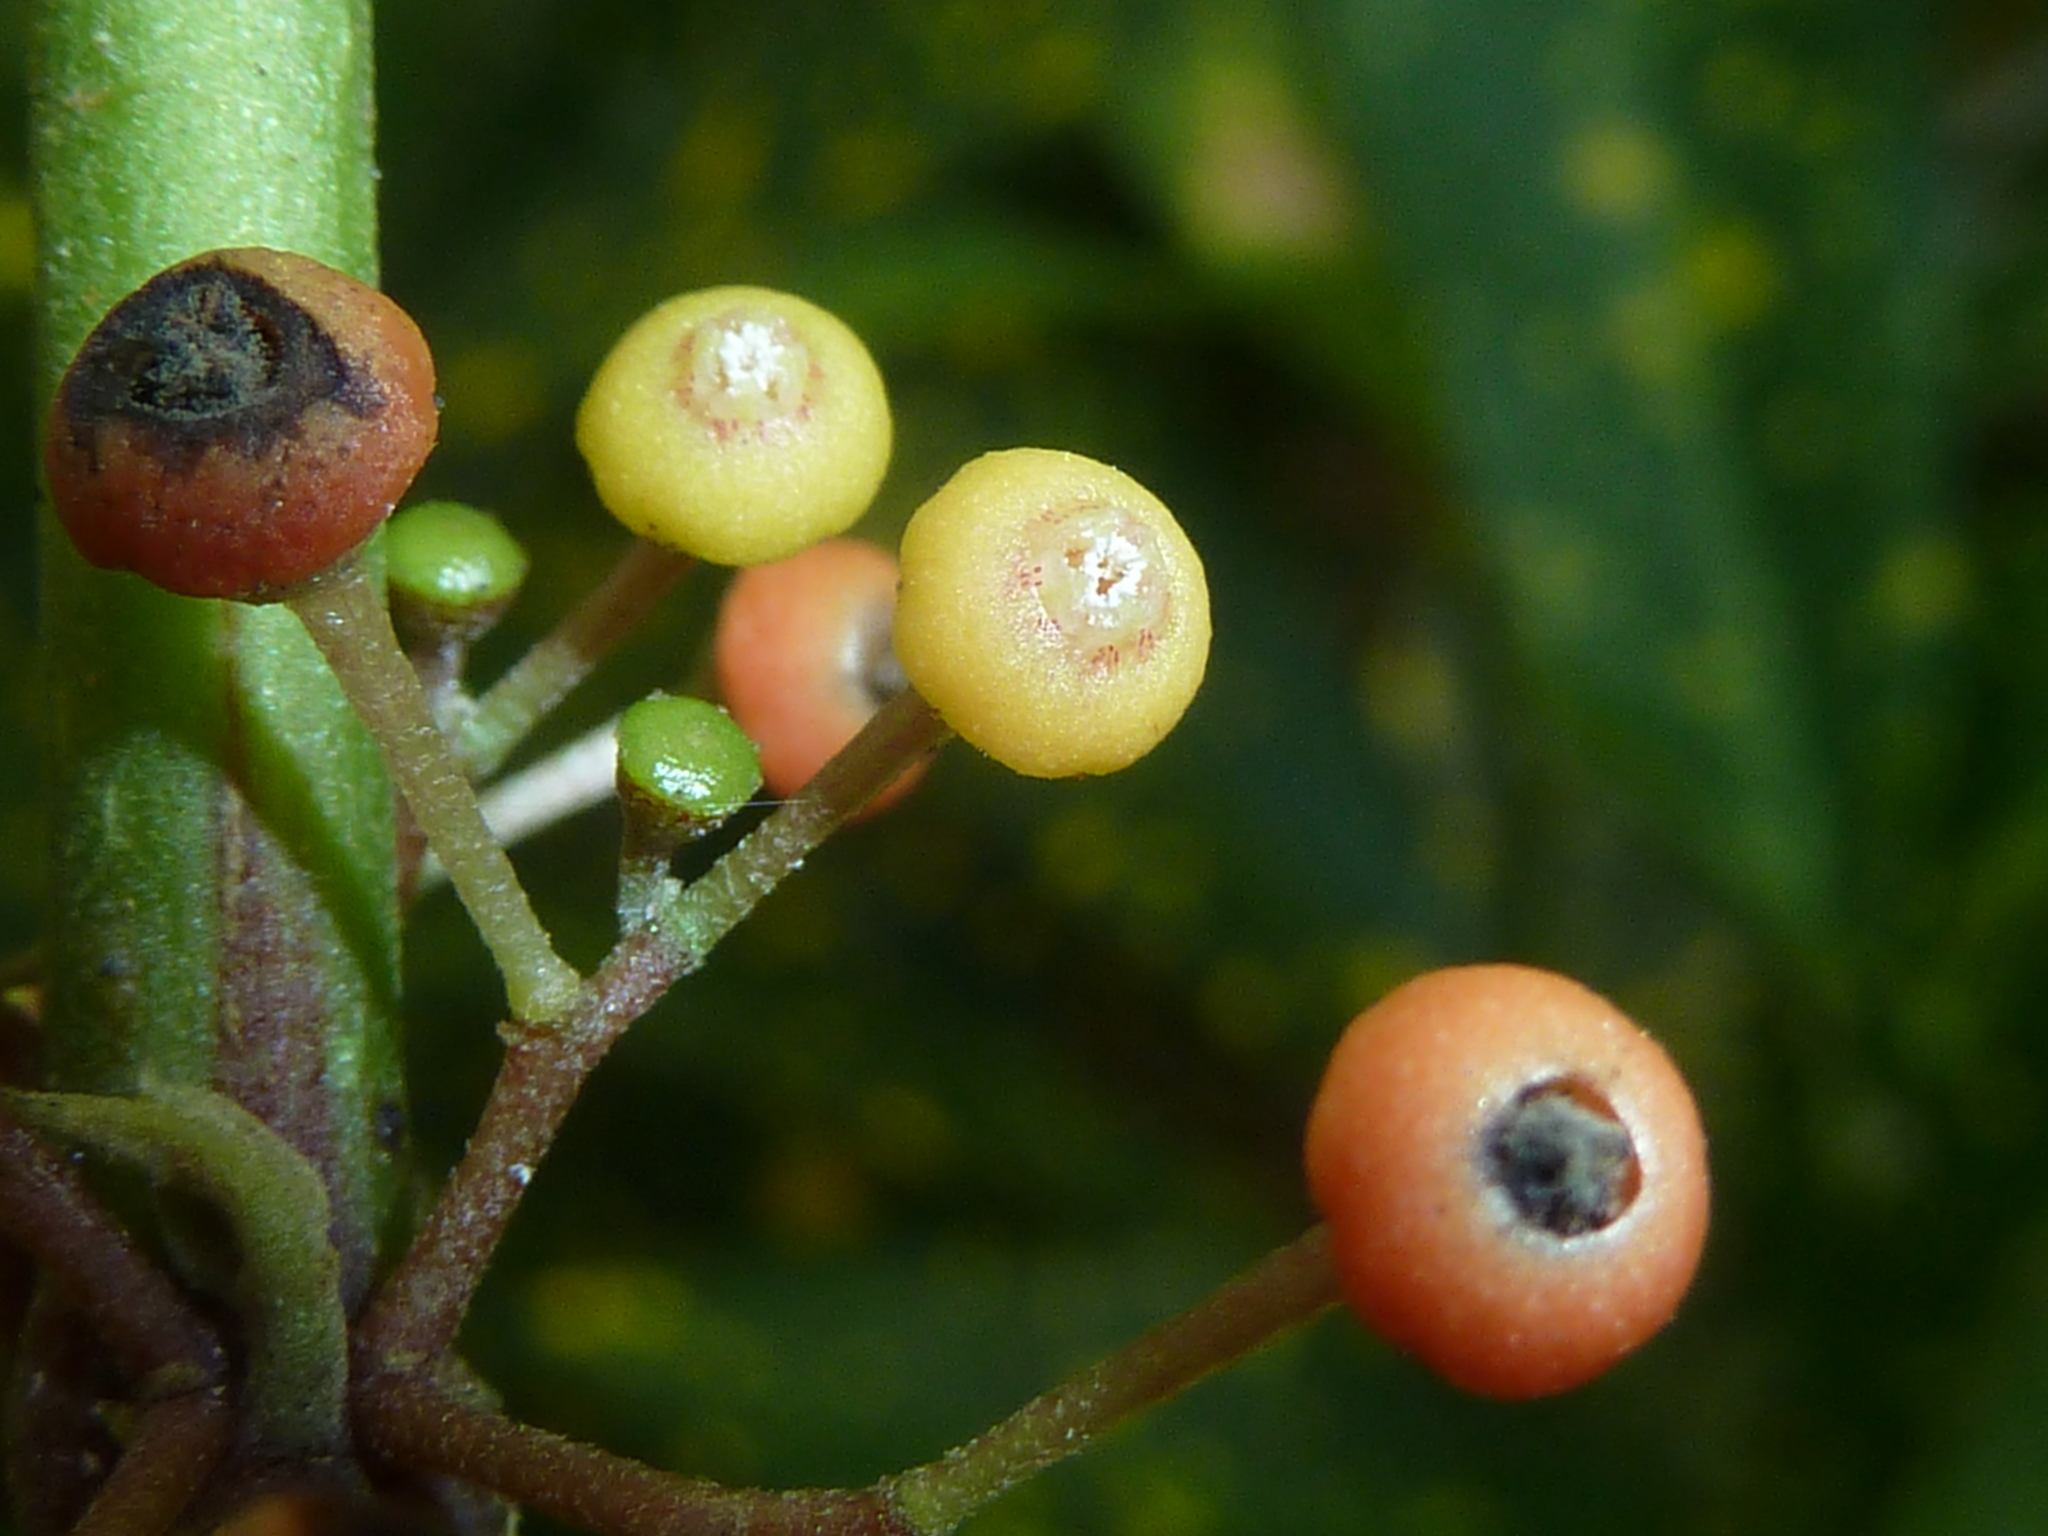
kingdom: Plantae
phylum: Tracheophyta
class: Magnoliopsida
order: Laurales
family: Siparunaceae
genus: Siparuna
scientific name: Siparuna thecaphora
